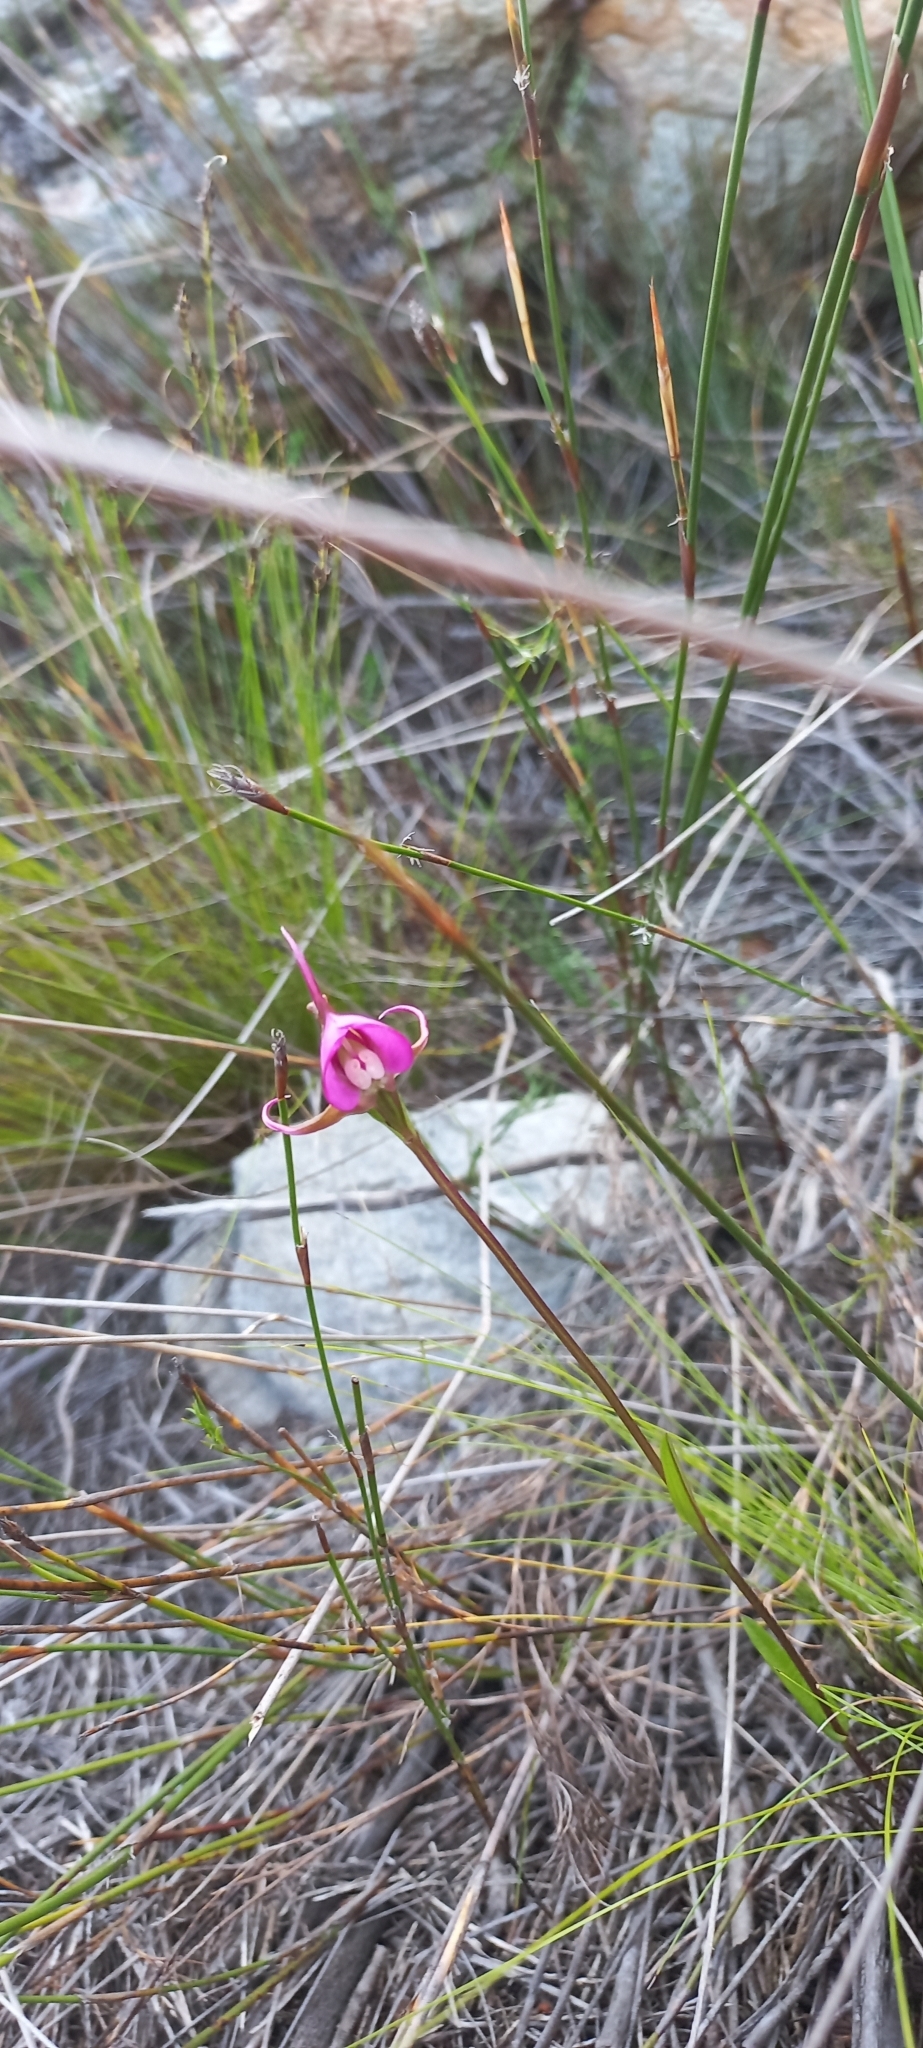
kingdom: Plantae
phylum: Tracheophyta
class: Liliopsida
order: Asparagales
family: Orchidaceae
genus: Disperis
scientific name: Disperis capensis
